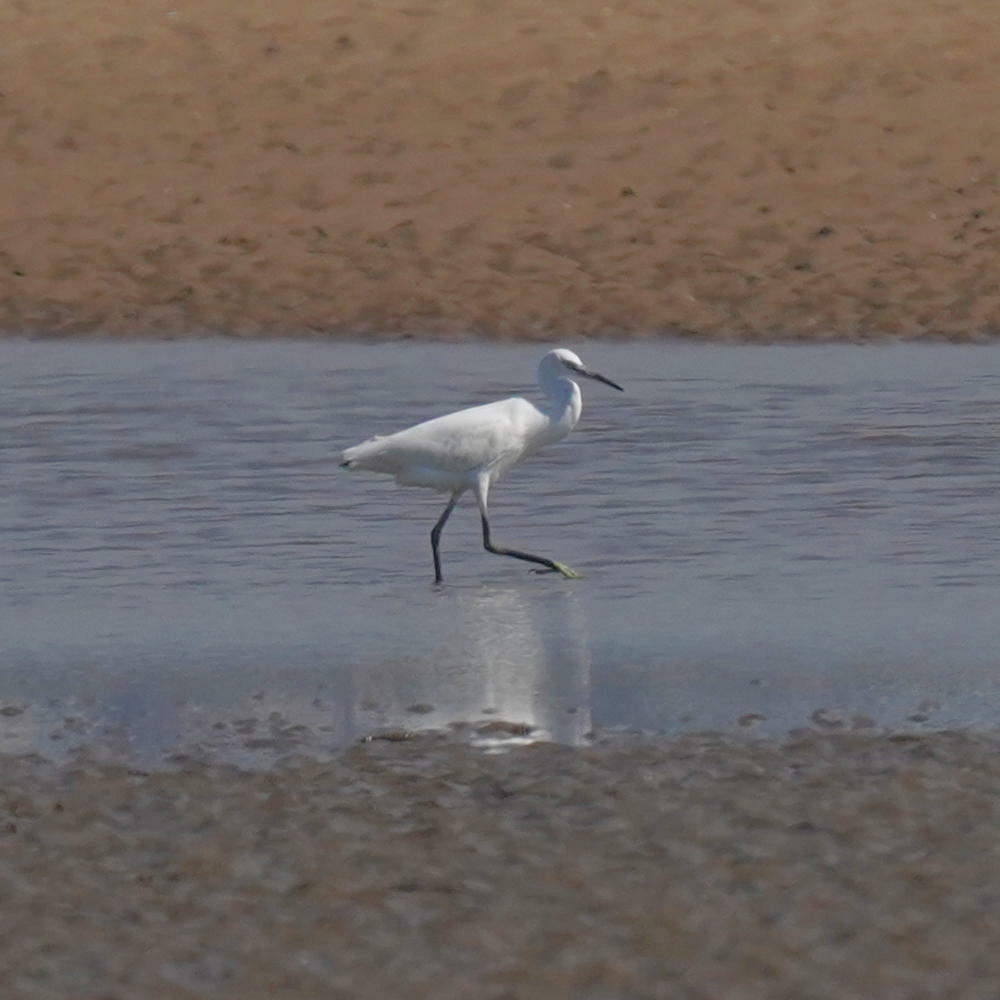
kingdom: Animalia
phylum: Chordata
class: Aves
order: Pelecaniformes
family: Ardeidae
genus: Egretta
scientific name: Egretta garzetta
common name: Little egret
